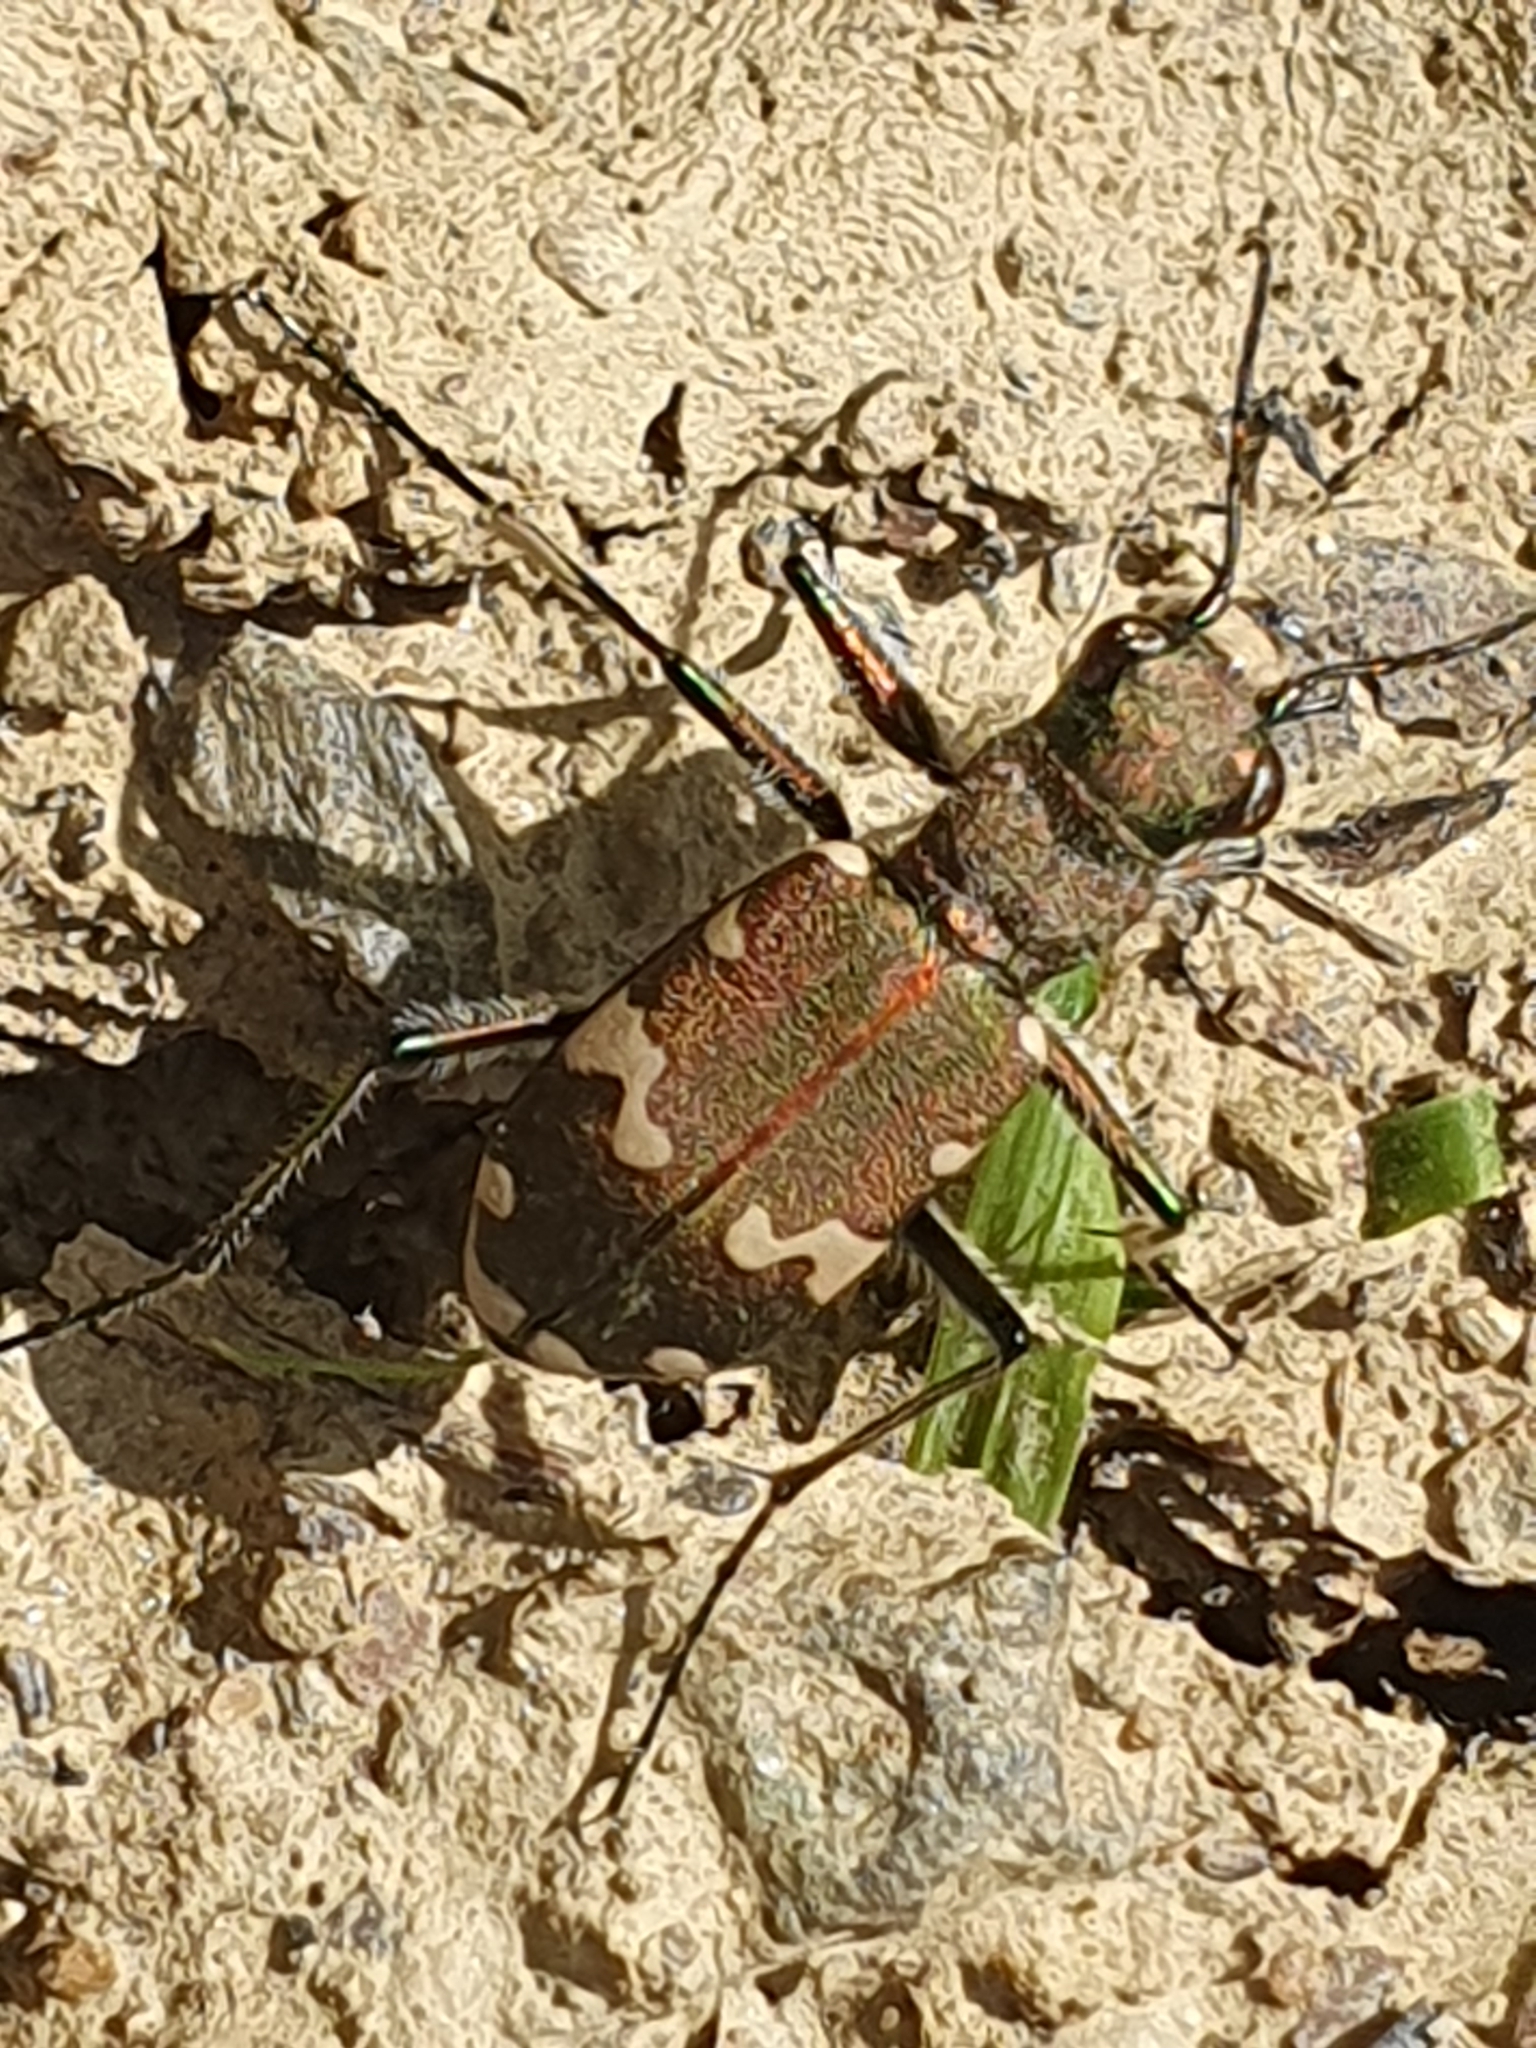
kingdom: Animalia
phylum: Arthropoda
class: Insecta
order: Coleoptera
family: Carabidae
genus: Cicindela
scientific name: Cicindela sylvicola
